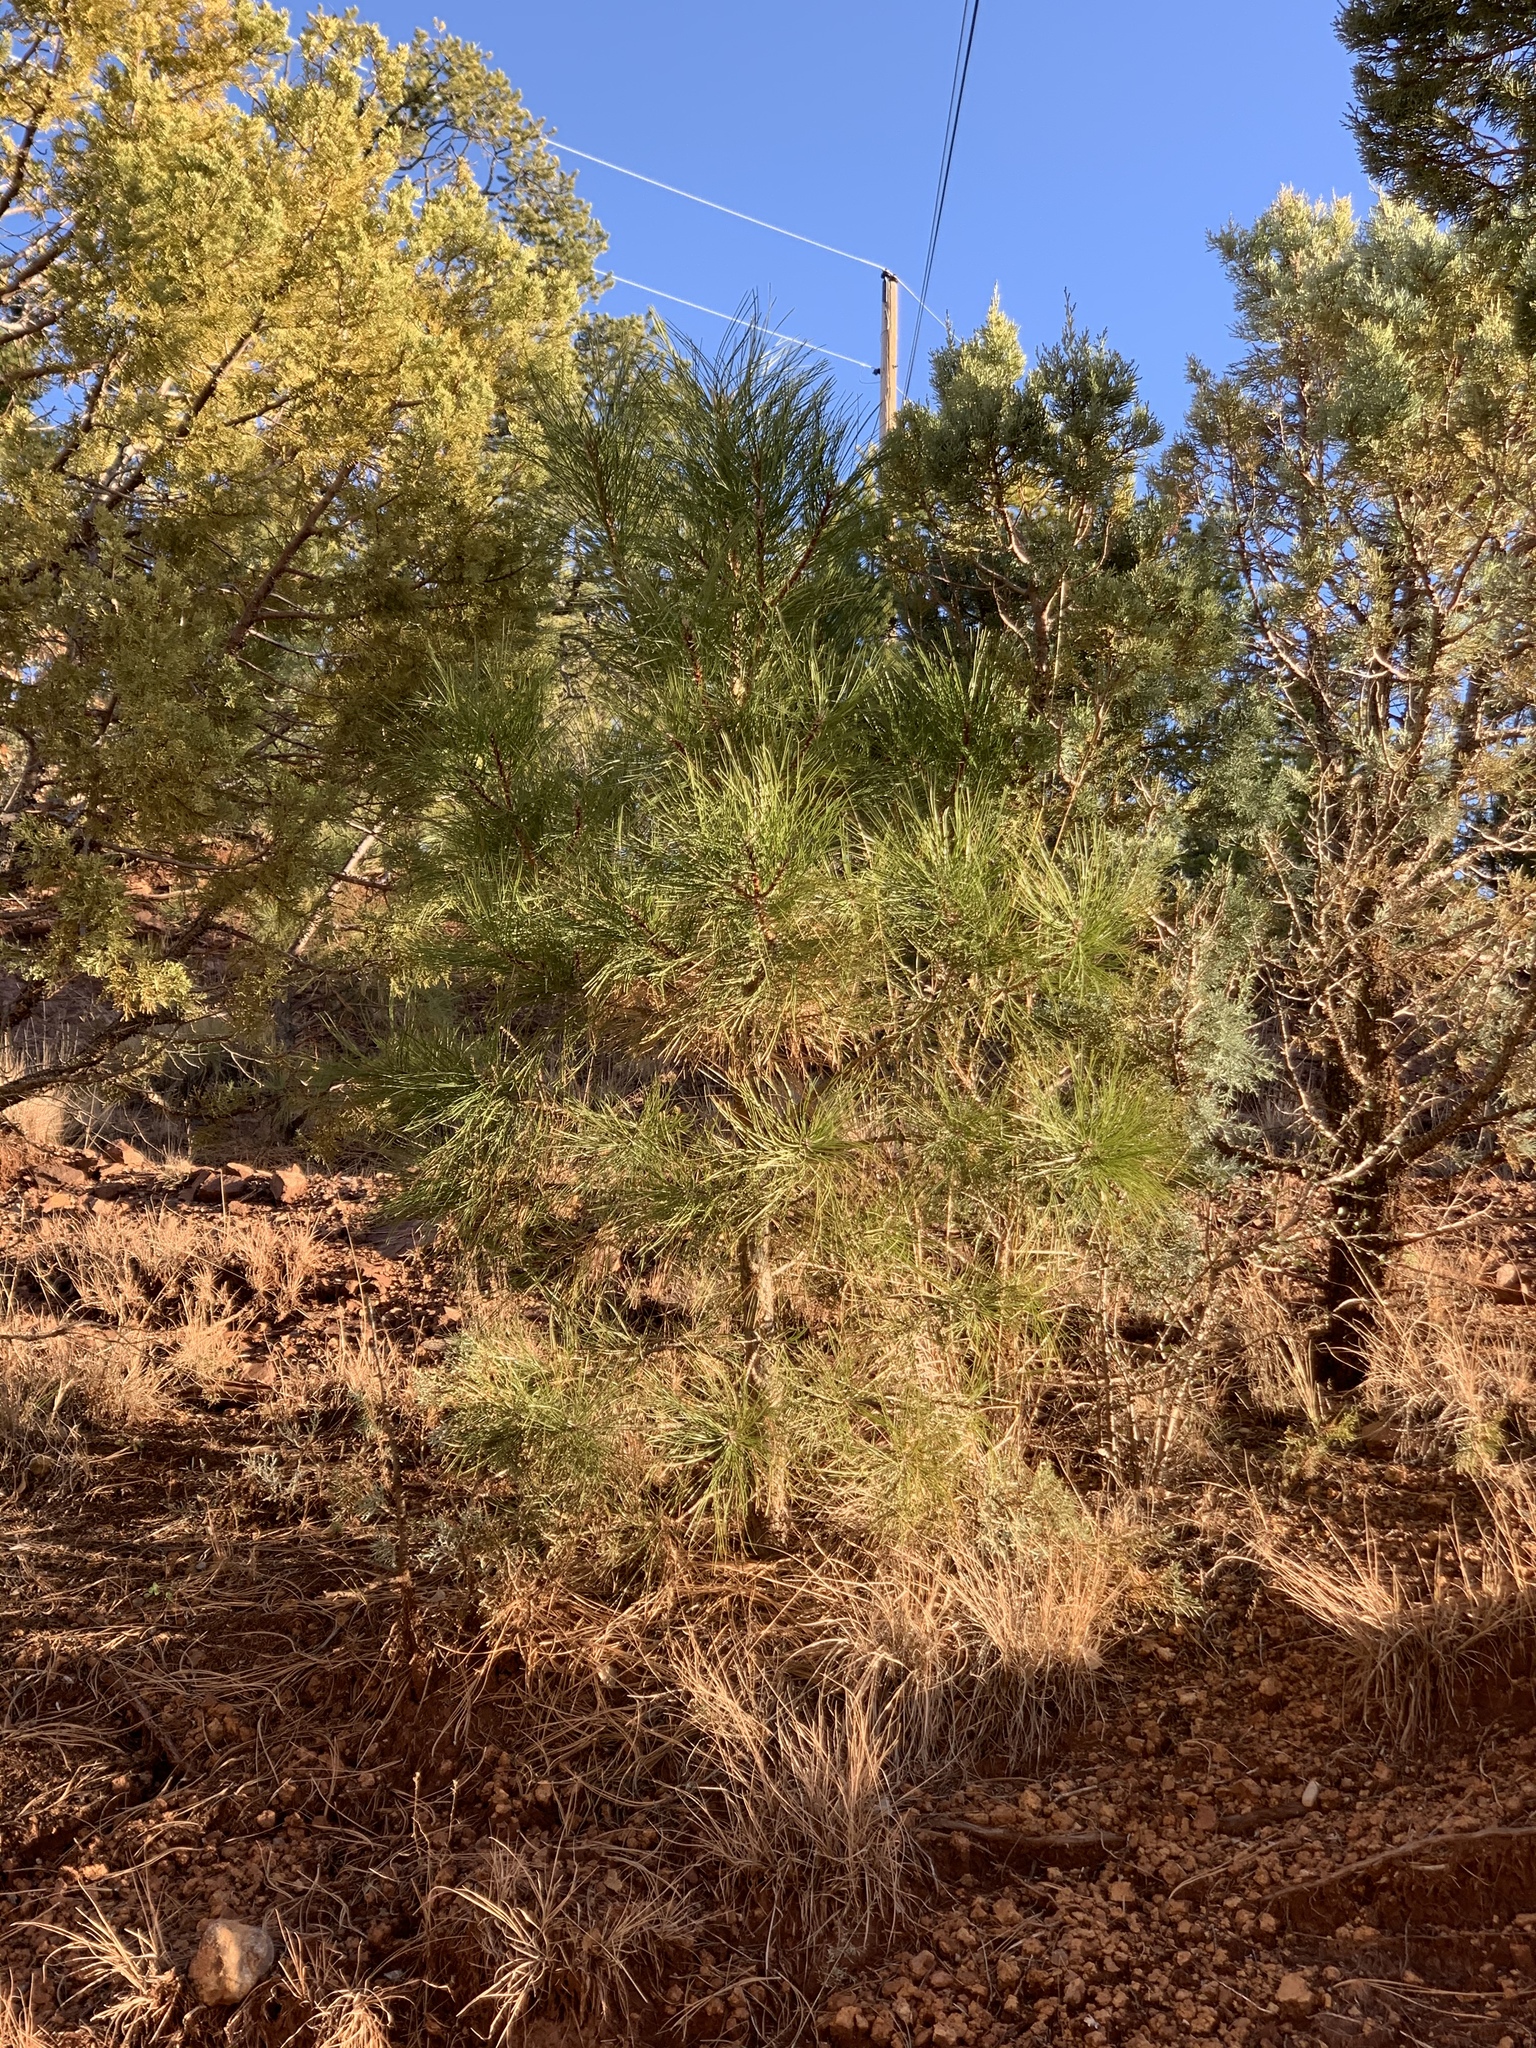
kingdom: Plantae
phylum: Tracheophyta
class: Pinopsida
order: Pinales
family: Pinaceae
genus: Pinus
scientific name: Pinus ponderosa
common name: Western yellow-pine
